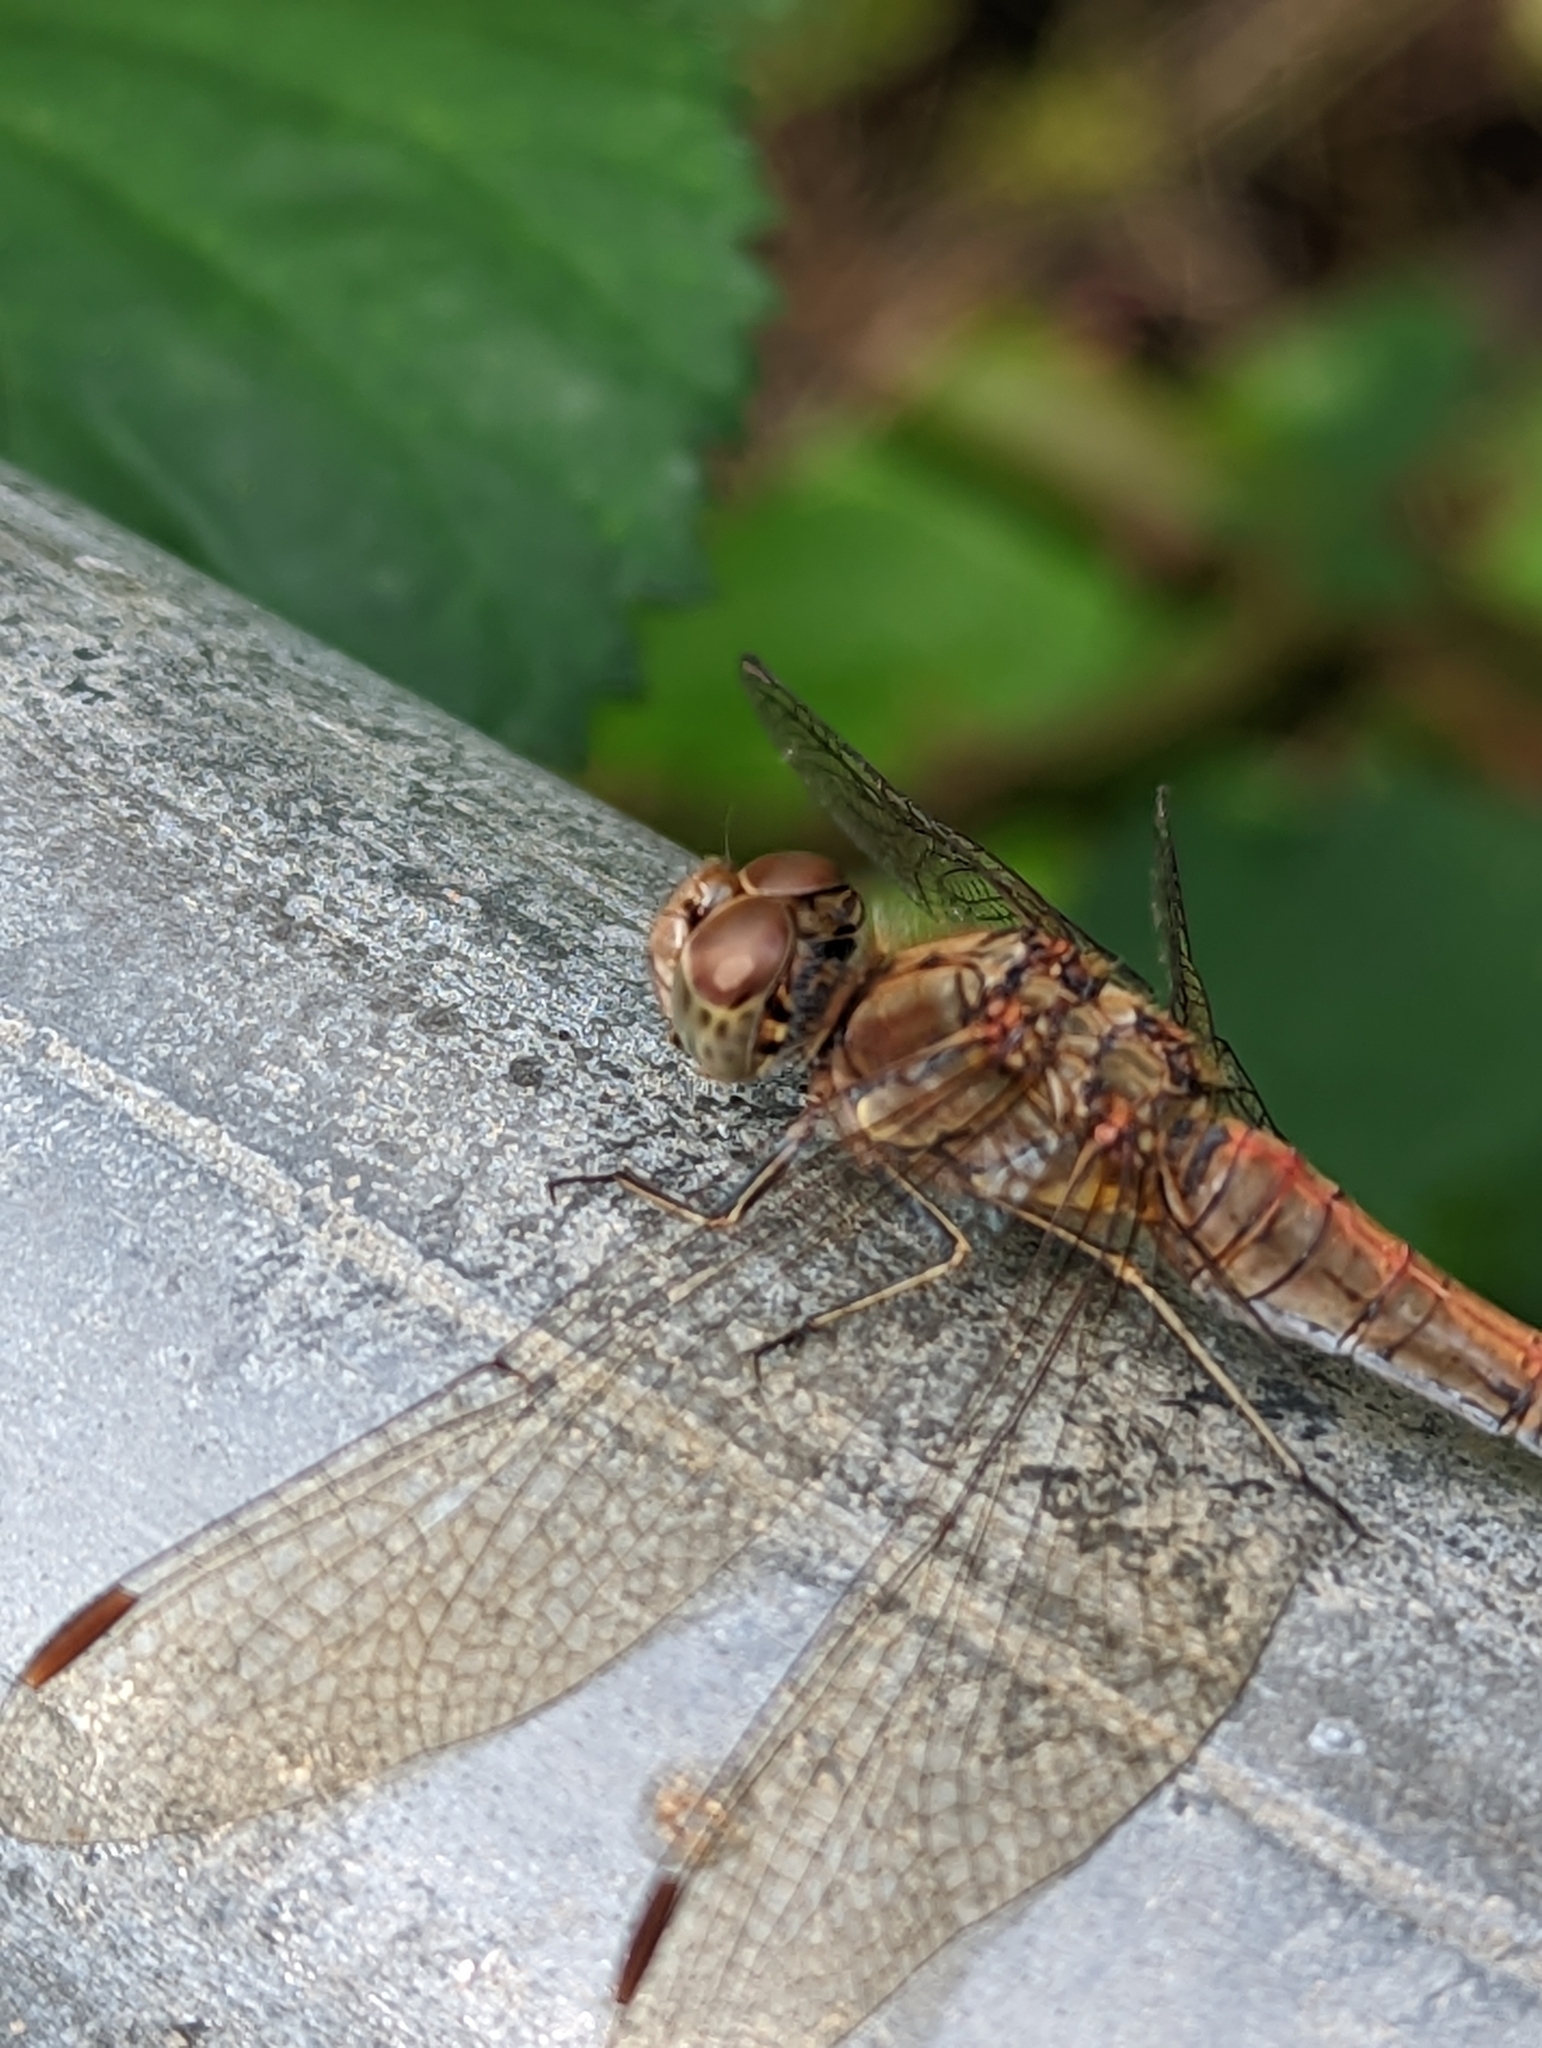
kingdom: Animalia
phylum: Arthropoda
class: Insecta
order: Odonata
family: Libellulidae
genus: Sympetrum
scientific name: Sympetrum striolatum
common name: Common darter
